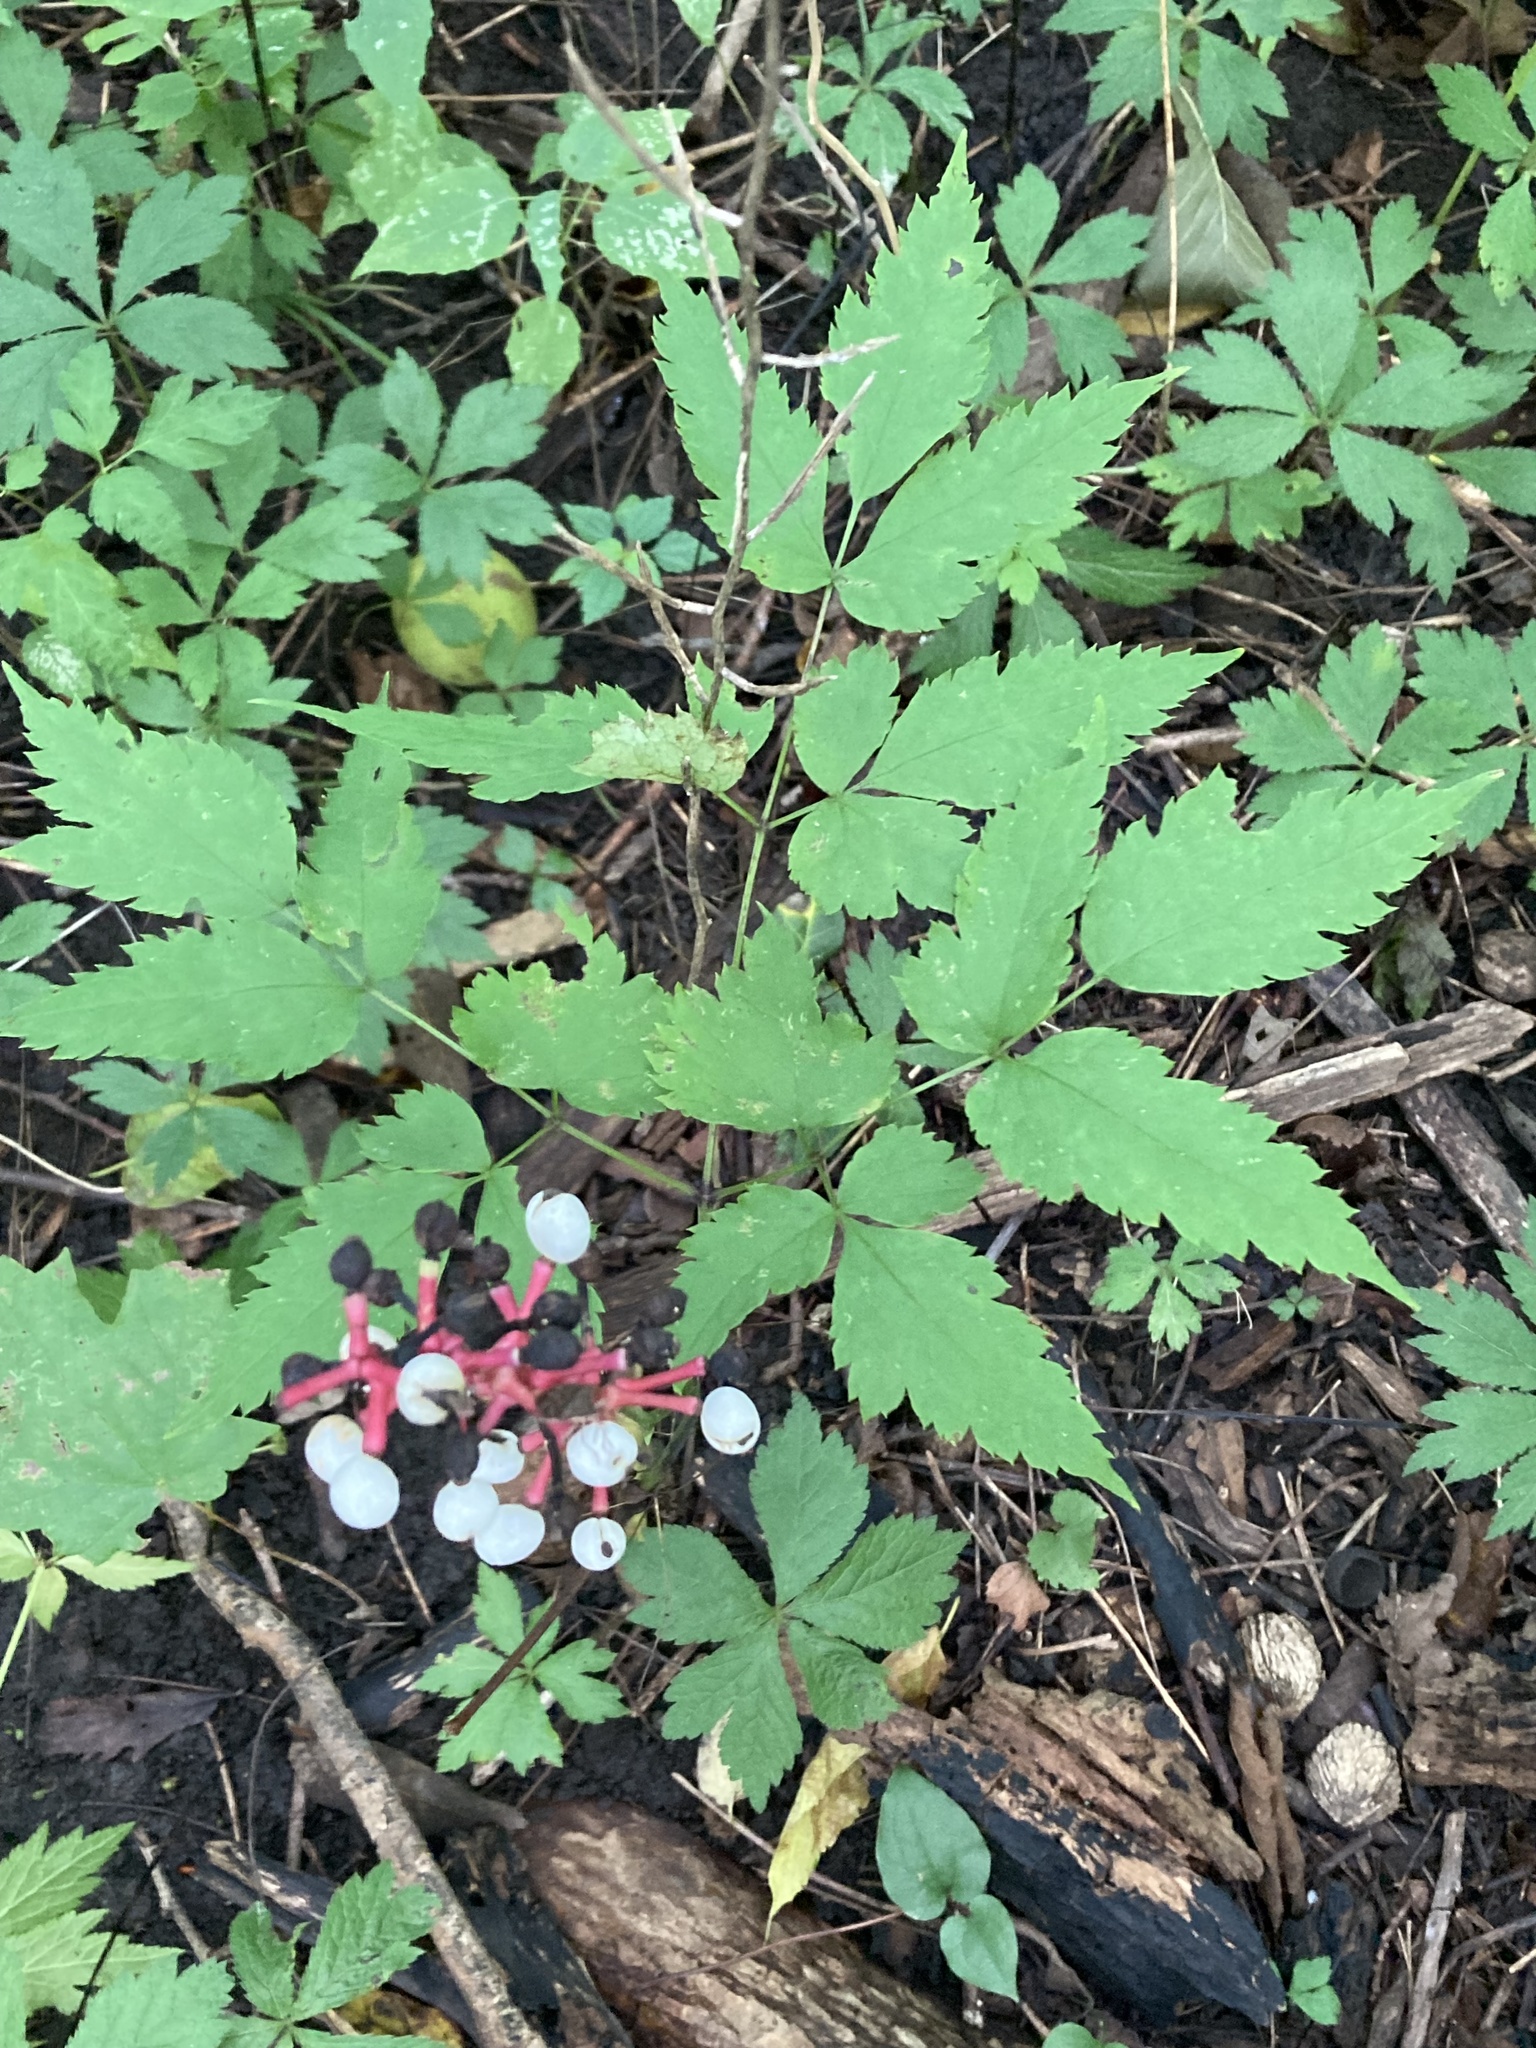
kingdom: Plantae
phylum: Tracheophyta
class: Magnoliopsida
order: Ranunculales
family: Ranunculaceae
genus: Actaea
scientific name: Actaea pachypoda
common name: Doll's-eyes
